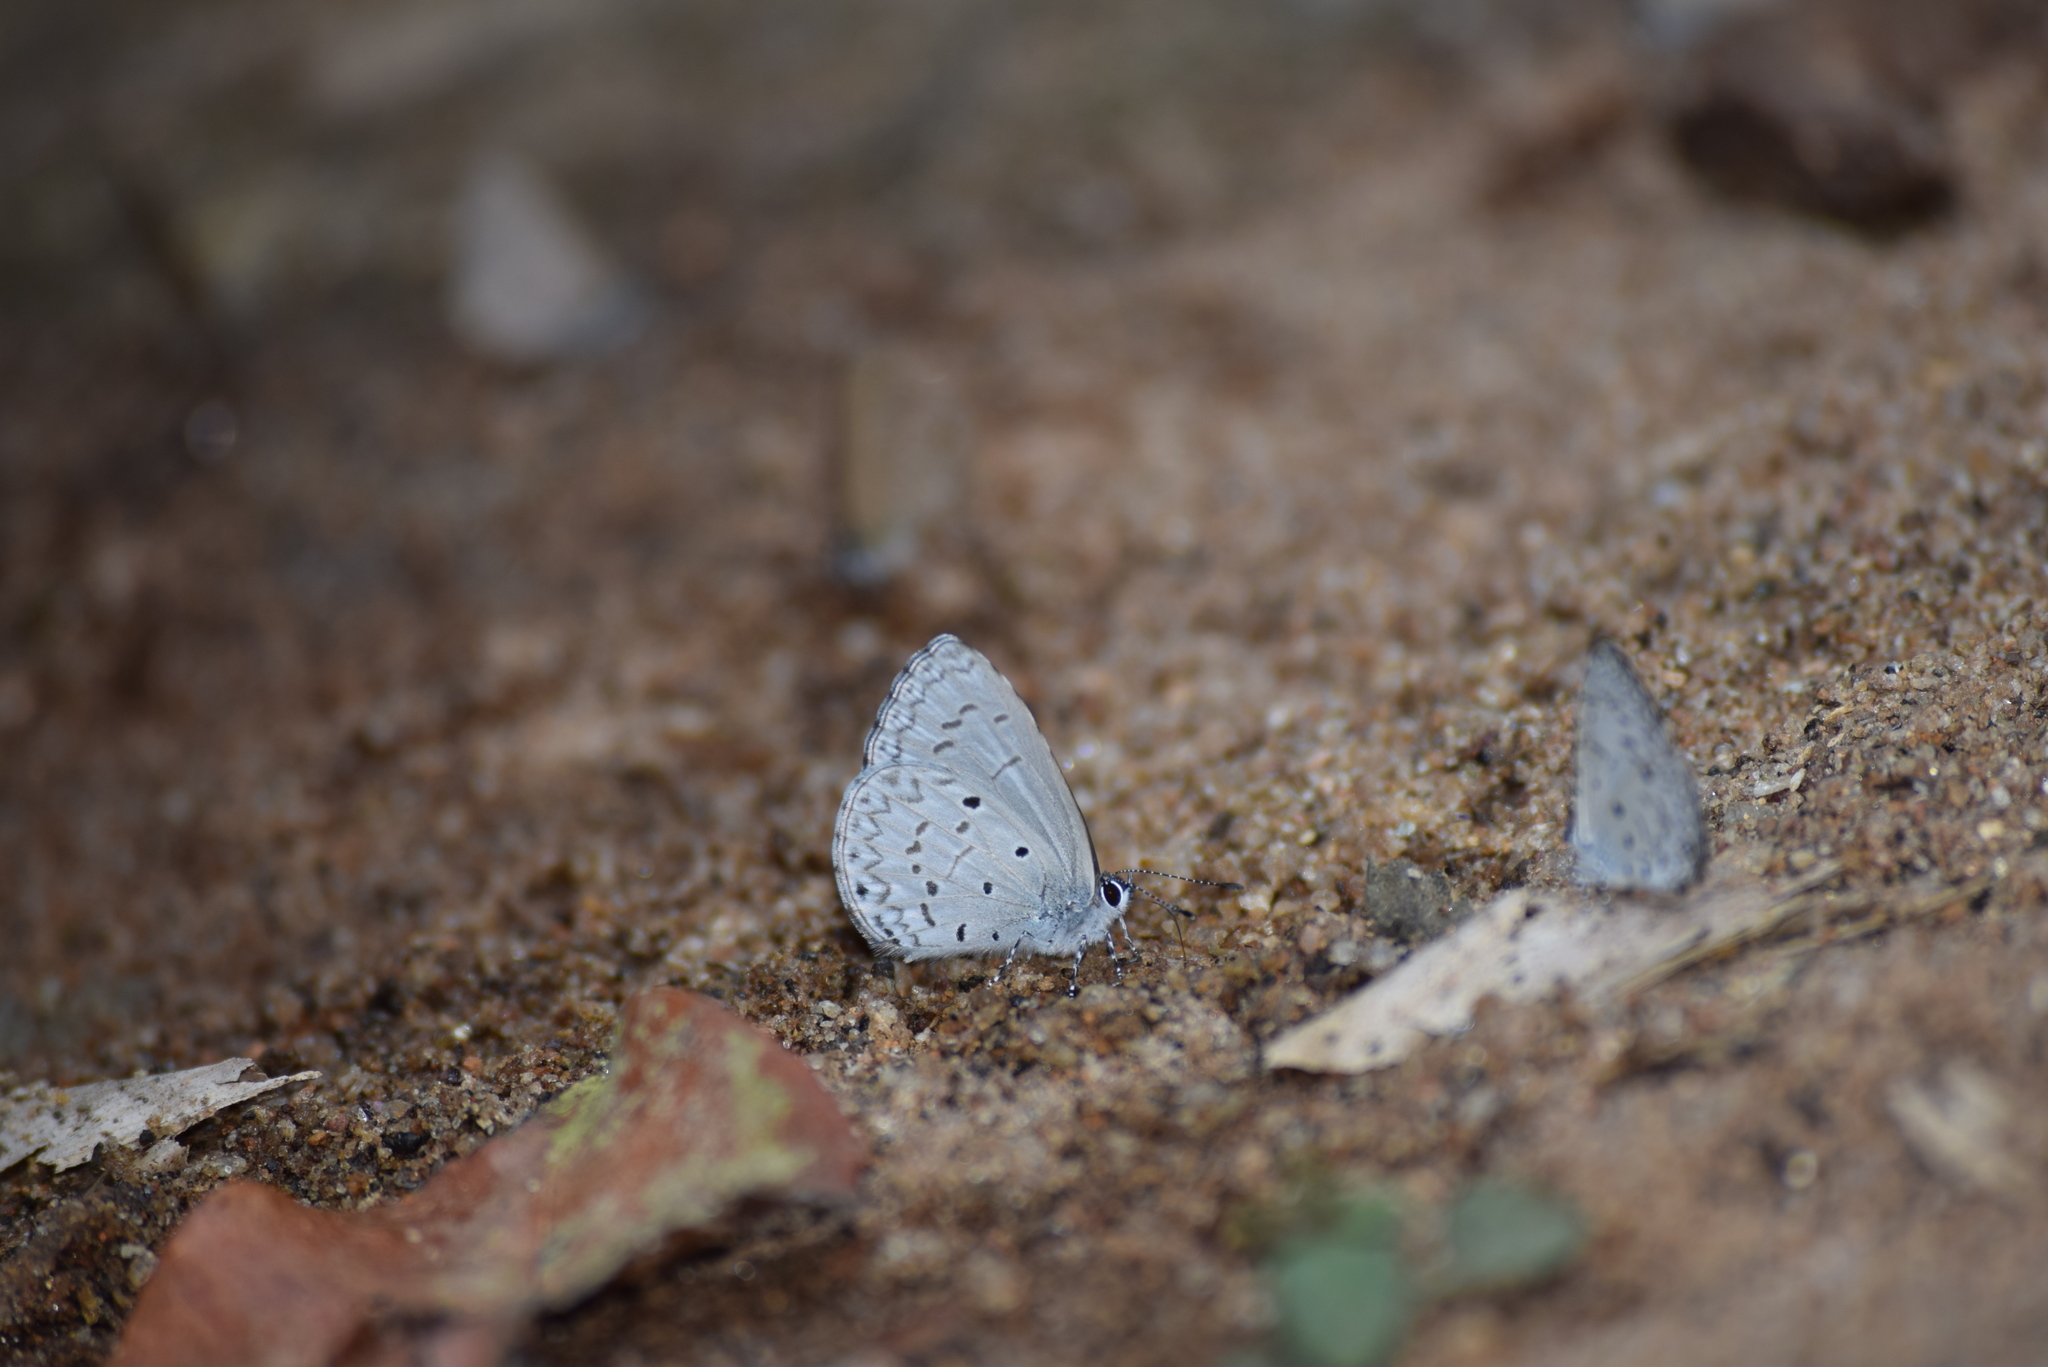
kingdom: Animalia
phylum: Arthropoda
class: Insecta
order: Lepidoptera
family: Lycaenidae
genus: Celastrina
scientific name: Celastrina lavendularis
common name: Plain hedge blue
